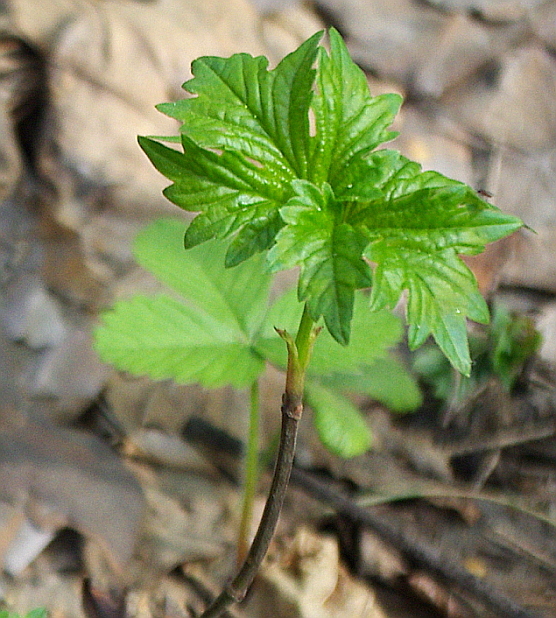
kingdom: Plantae
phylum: Tracheophyta
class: Magnoliopsida
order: Dipsacales
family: Viburnaceae
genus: Viburnum
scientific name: Viburnum opulus
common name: Guelder-rose
